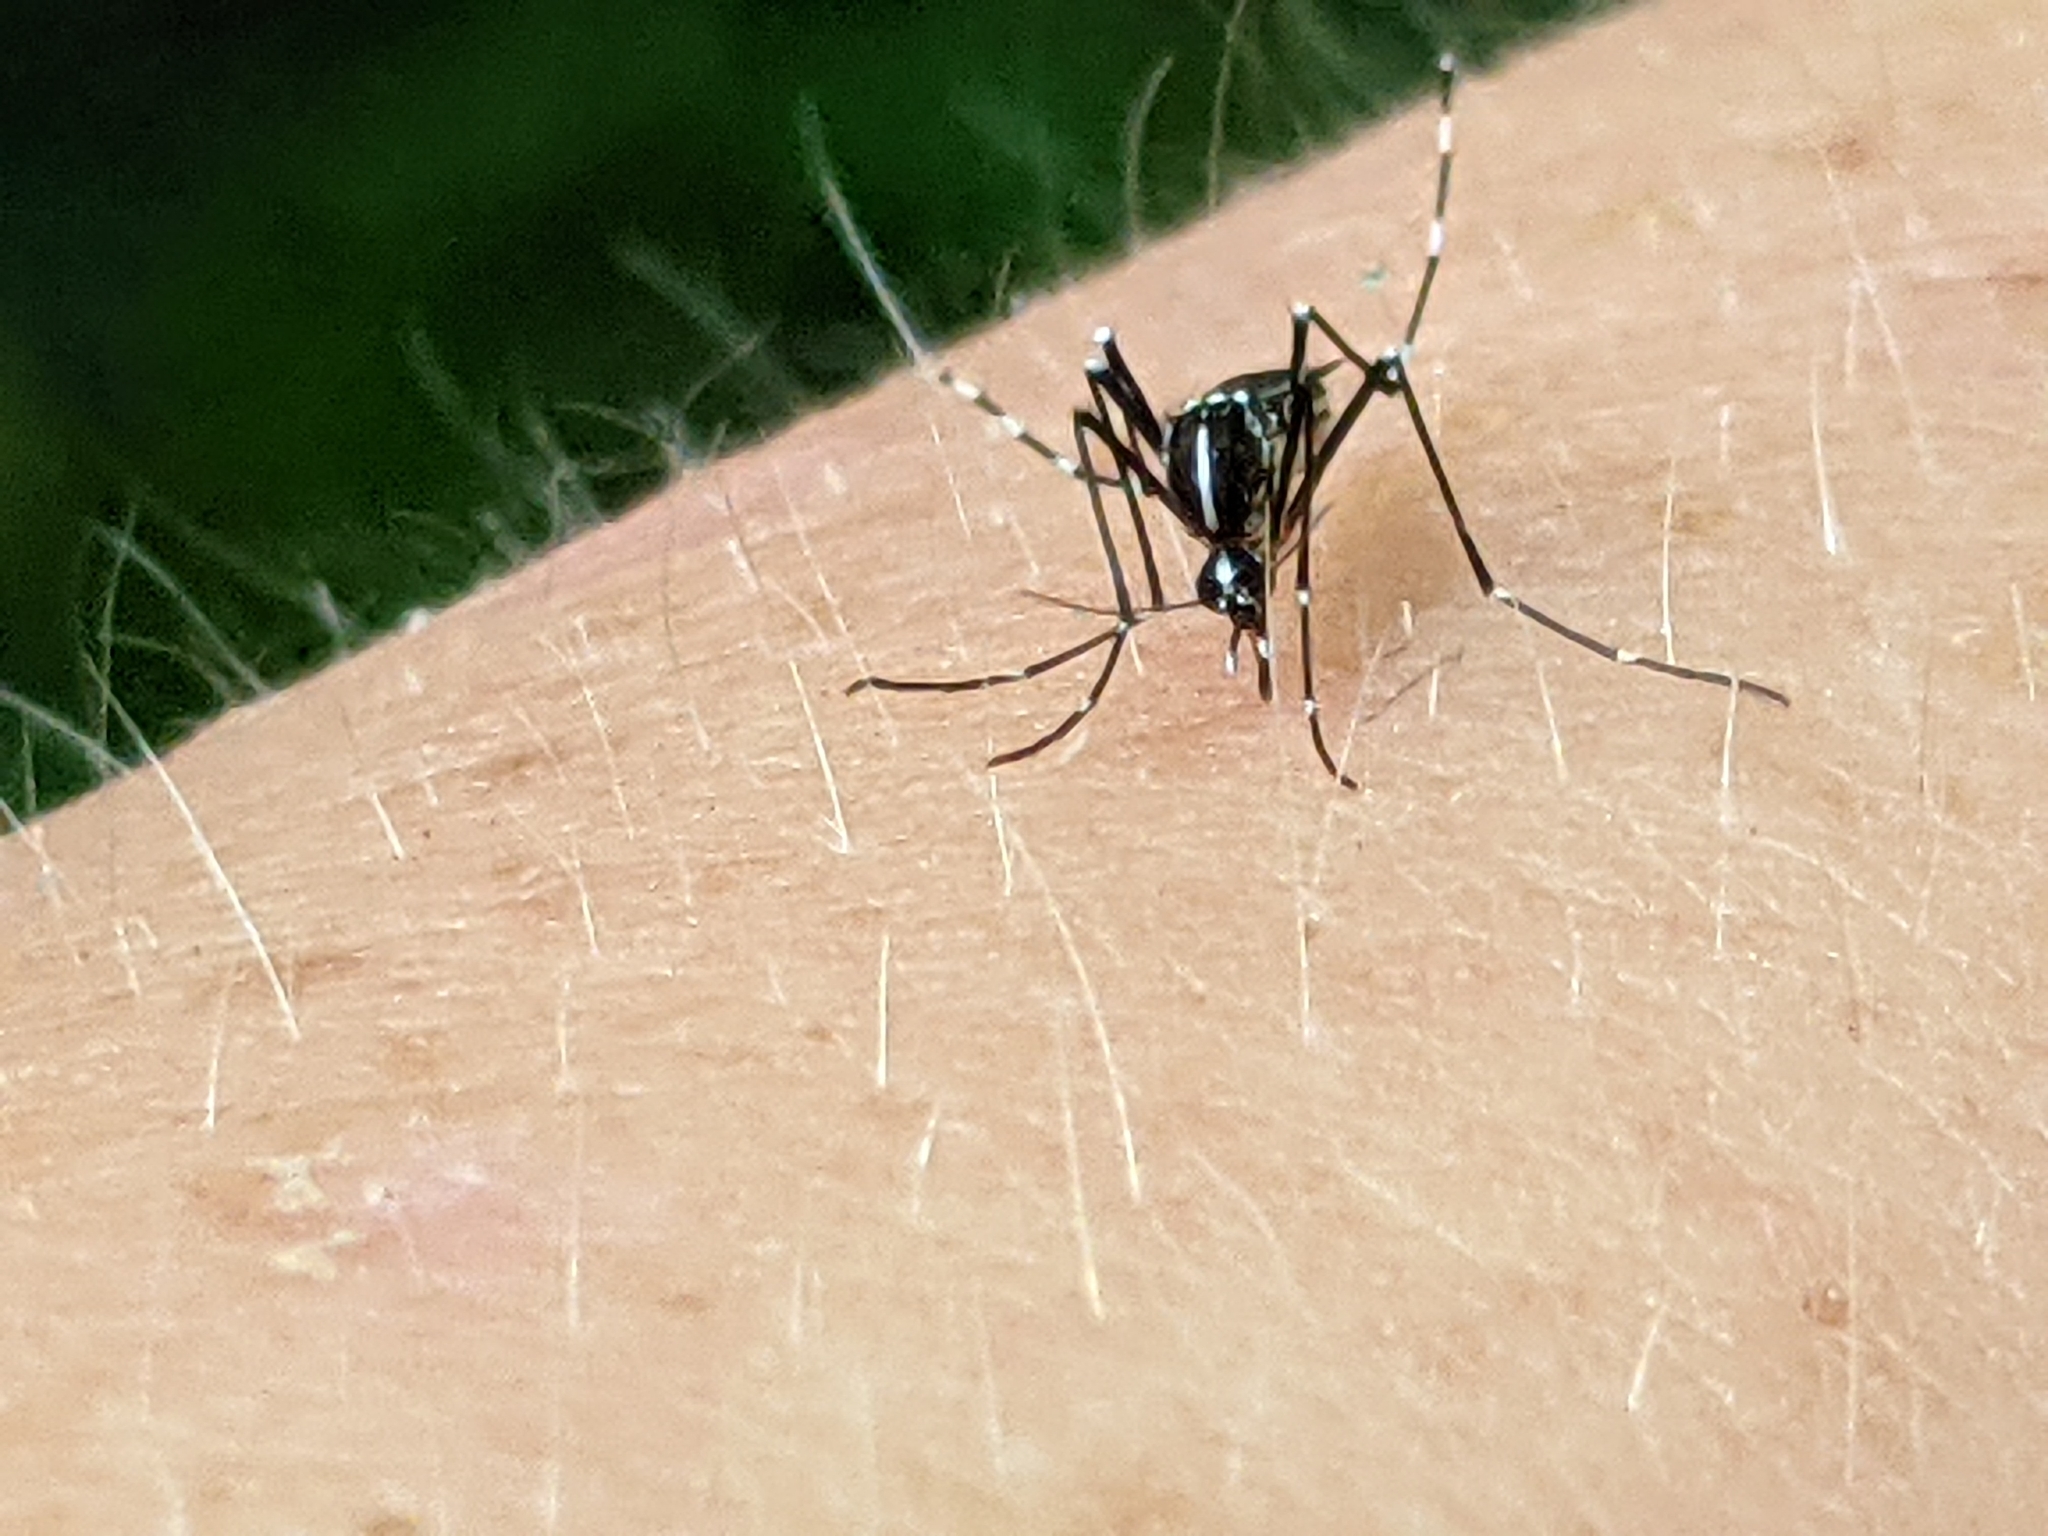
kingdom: Animalia
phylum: Arthropoda
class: Insecta
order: Diptera
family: Culicidae
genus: Aedes
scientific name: Aedes albopictus
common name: Tiger mosquito
